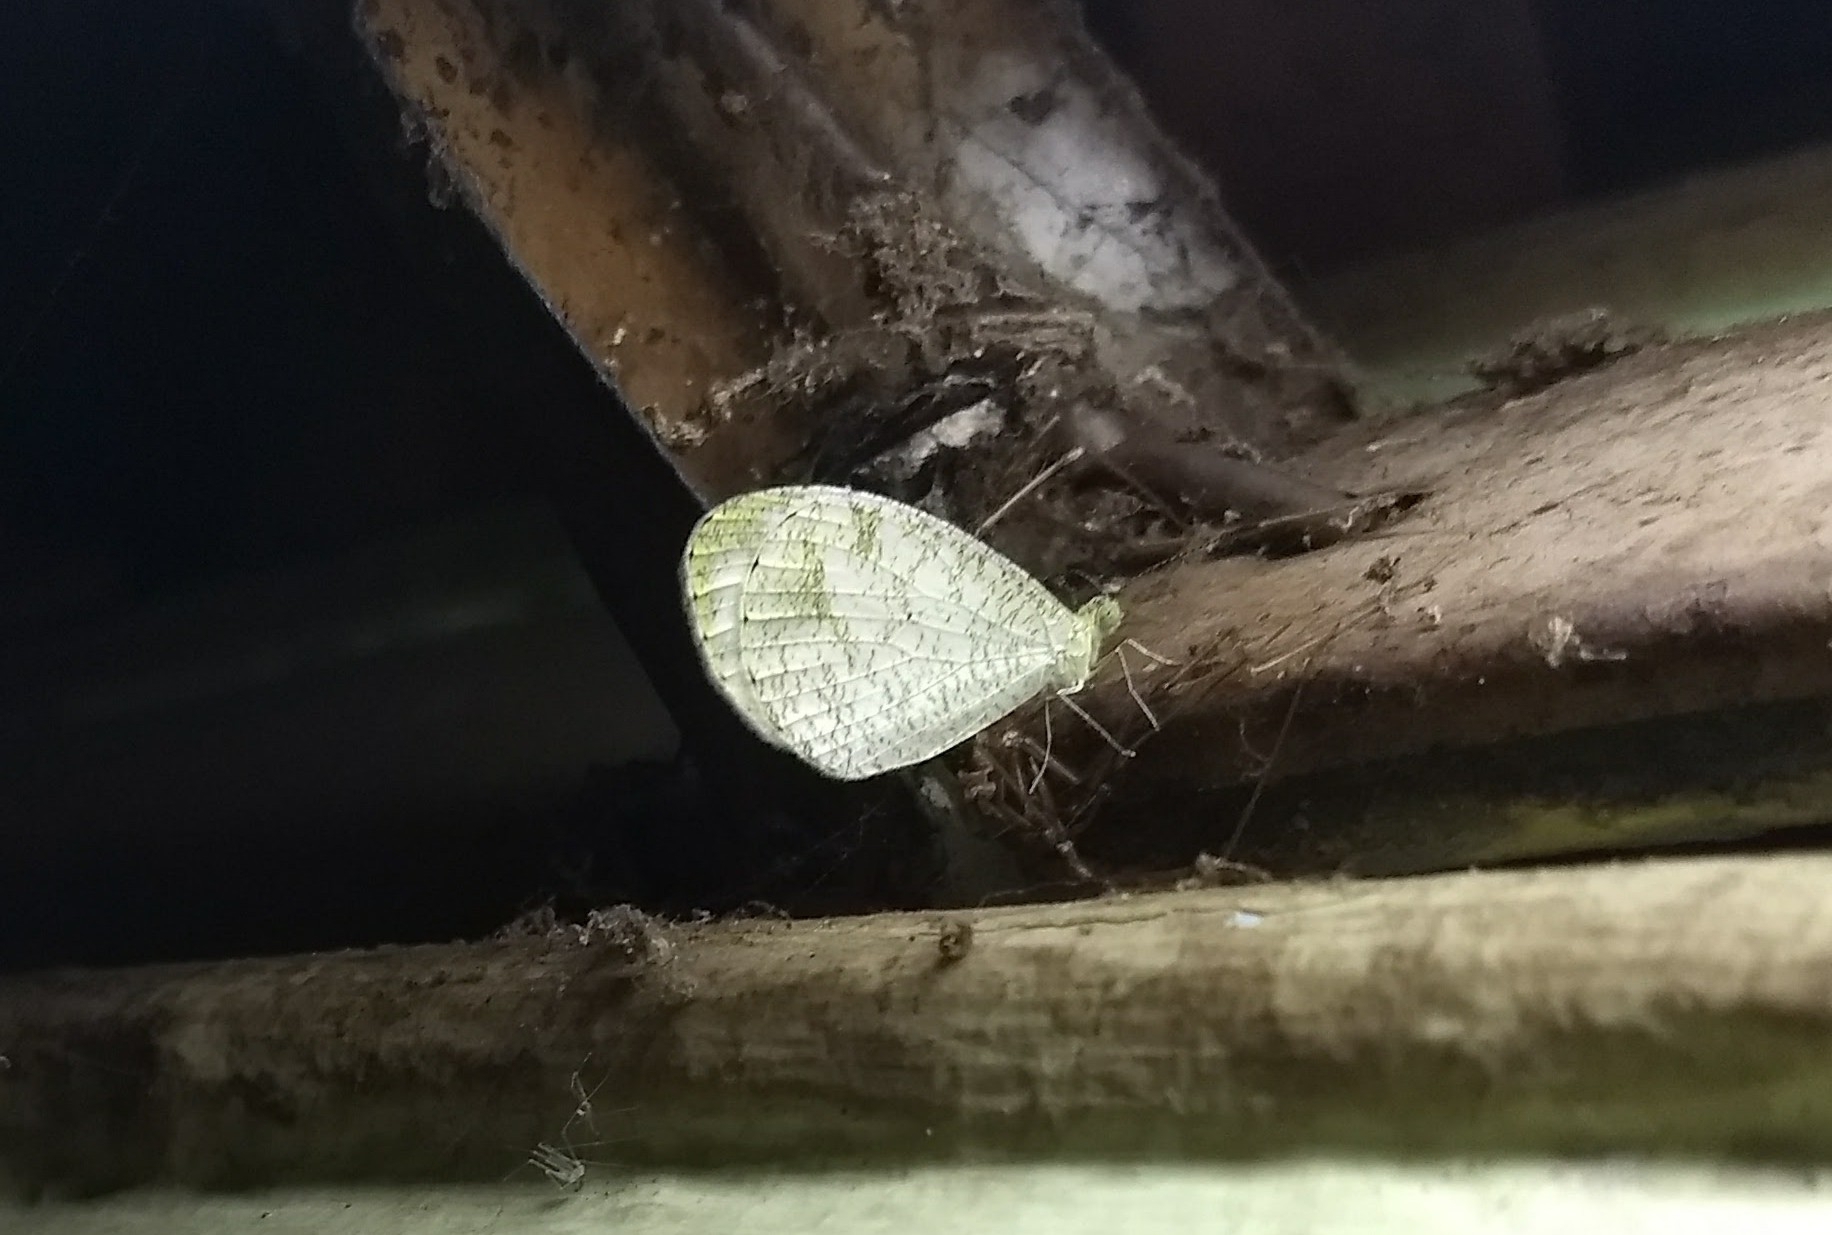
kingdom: Animalia
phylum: Arthropoda
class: Insecta
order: Lepidoptera
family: Pieridae
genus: Leptosia
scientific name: Leptosia nina
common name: Psyche
